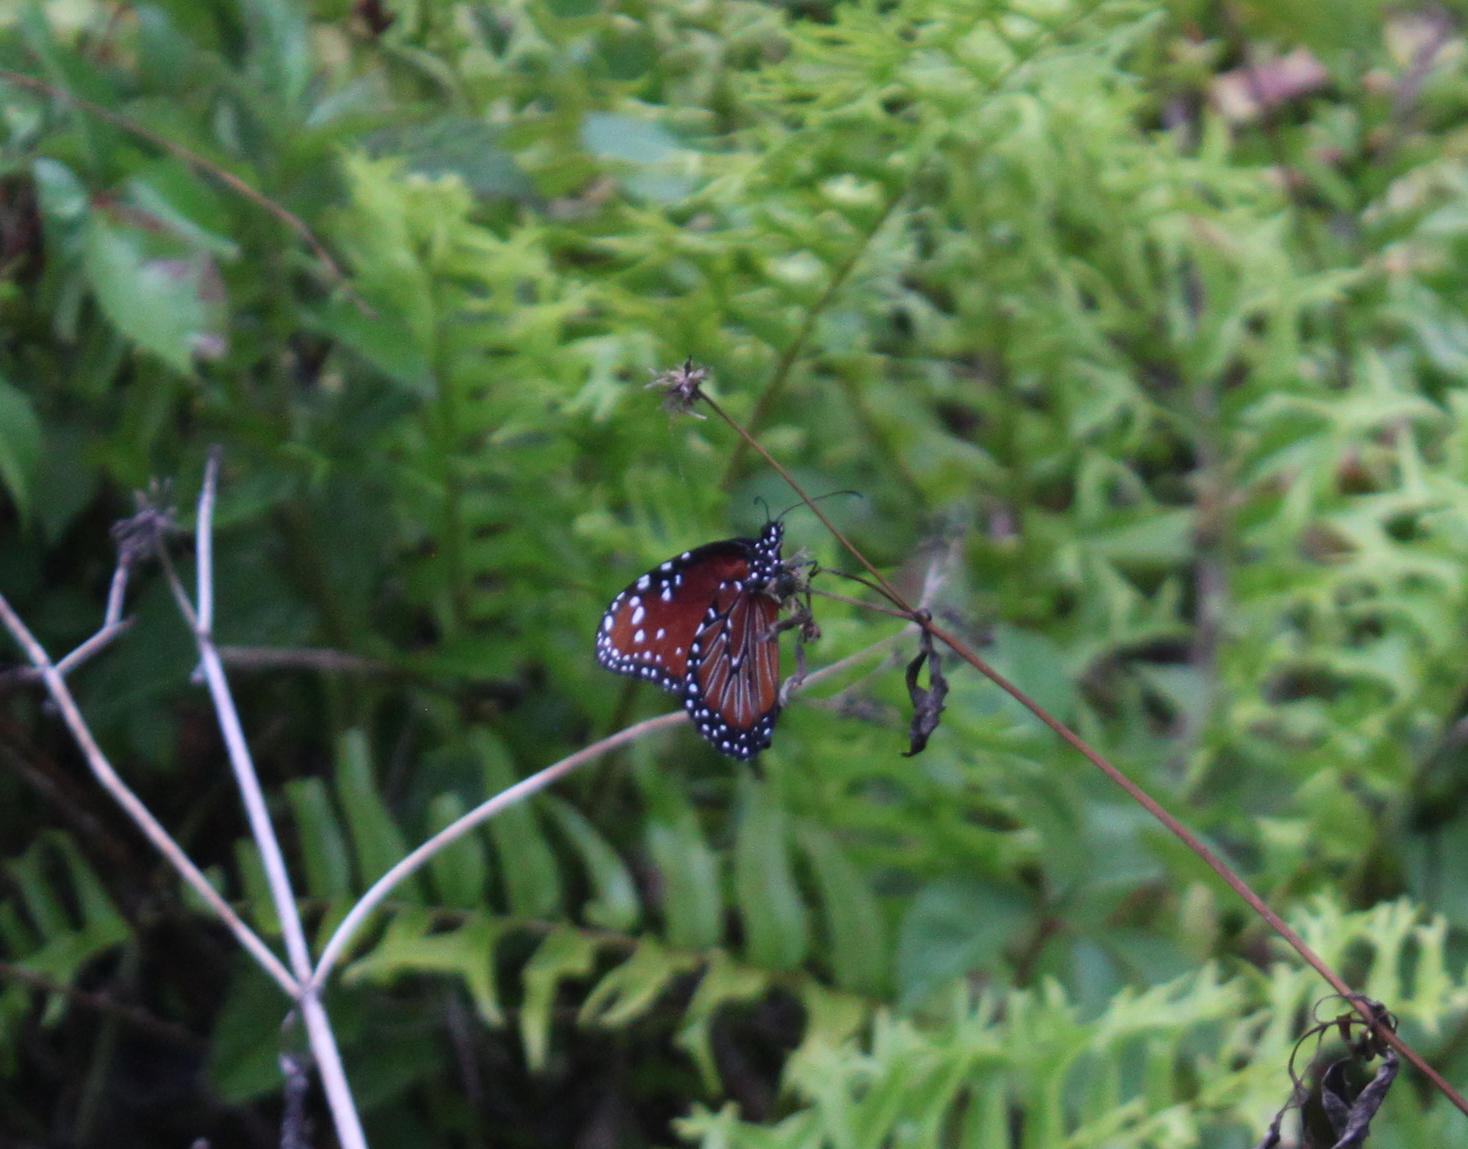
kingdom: Animalia
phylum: Arthropoda
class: Insecta
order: Lepidoptera
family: Nymphalidae
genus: Danaus
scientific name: Danaus gilippus
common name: Queen
